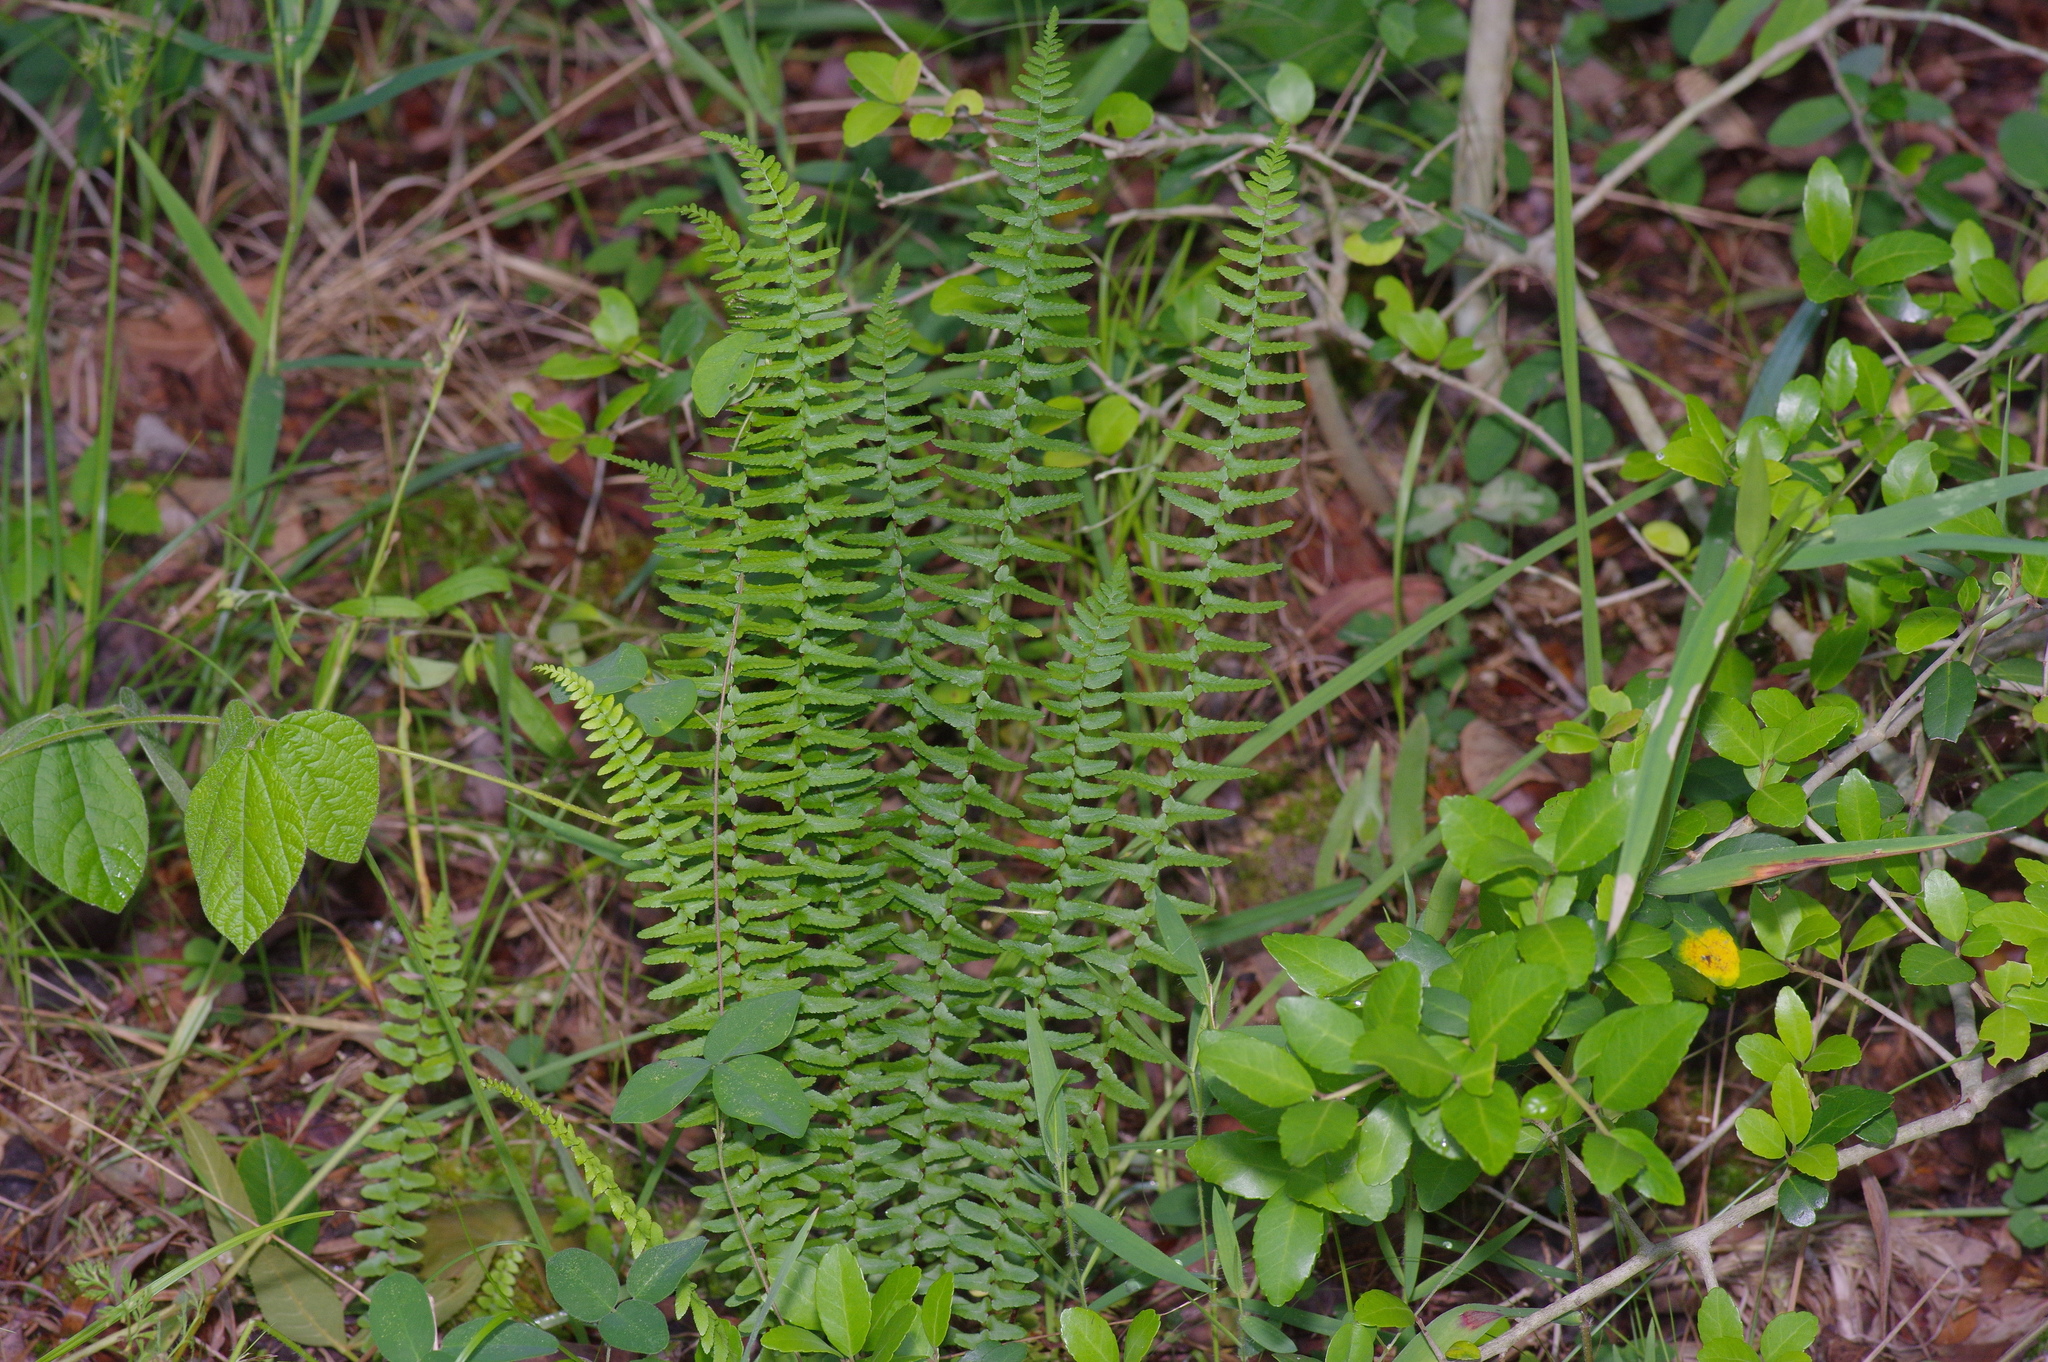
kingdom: Plantae
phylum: Tracheophyta
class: Polypodiopsida
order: Polypodiales
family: Aspleniaceae
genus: Asplenium
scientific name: Asplenium platyneuron
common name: Ebony spleenwort
